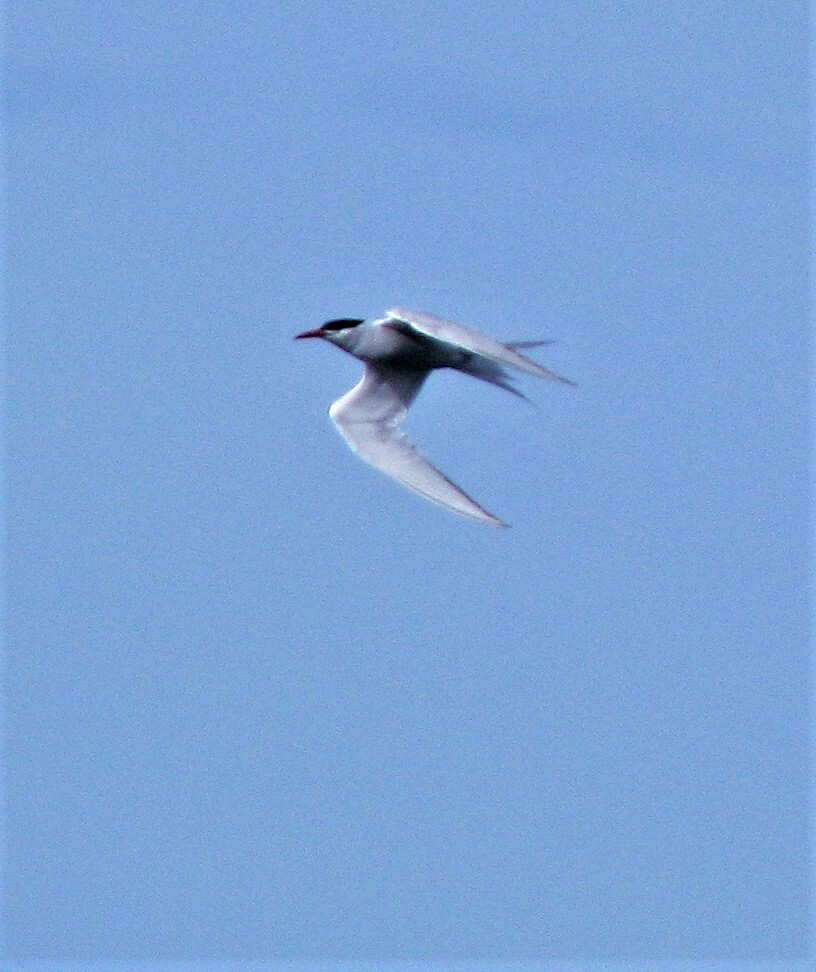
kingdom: Animalia
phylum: Chordata
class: Aves
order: Charadriiformes
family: Laridae
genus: Sterna
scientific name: Sterna hirundinacea
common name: South american tern
